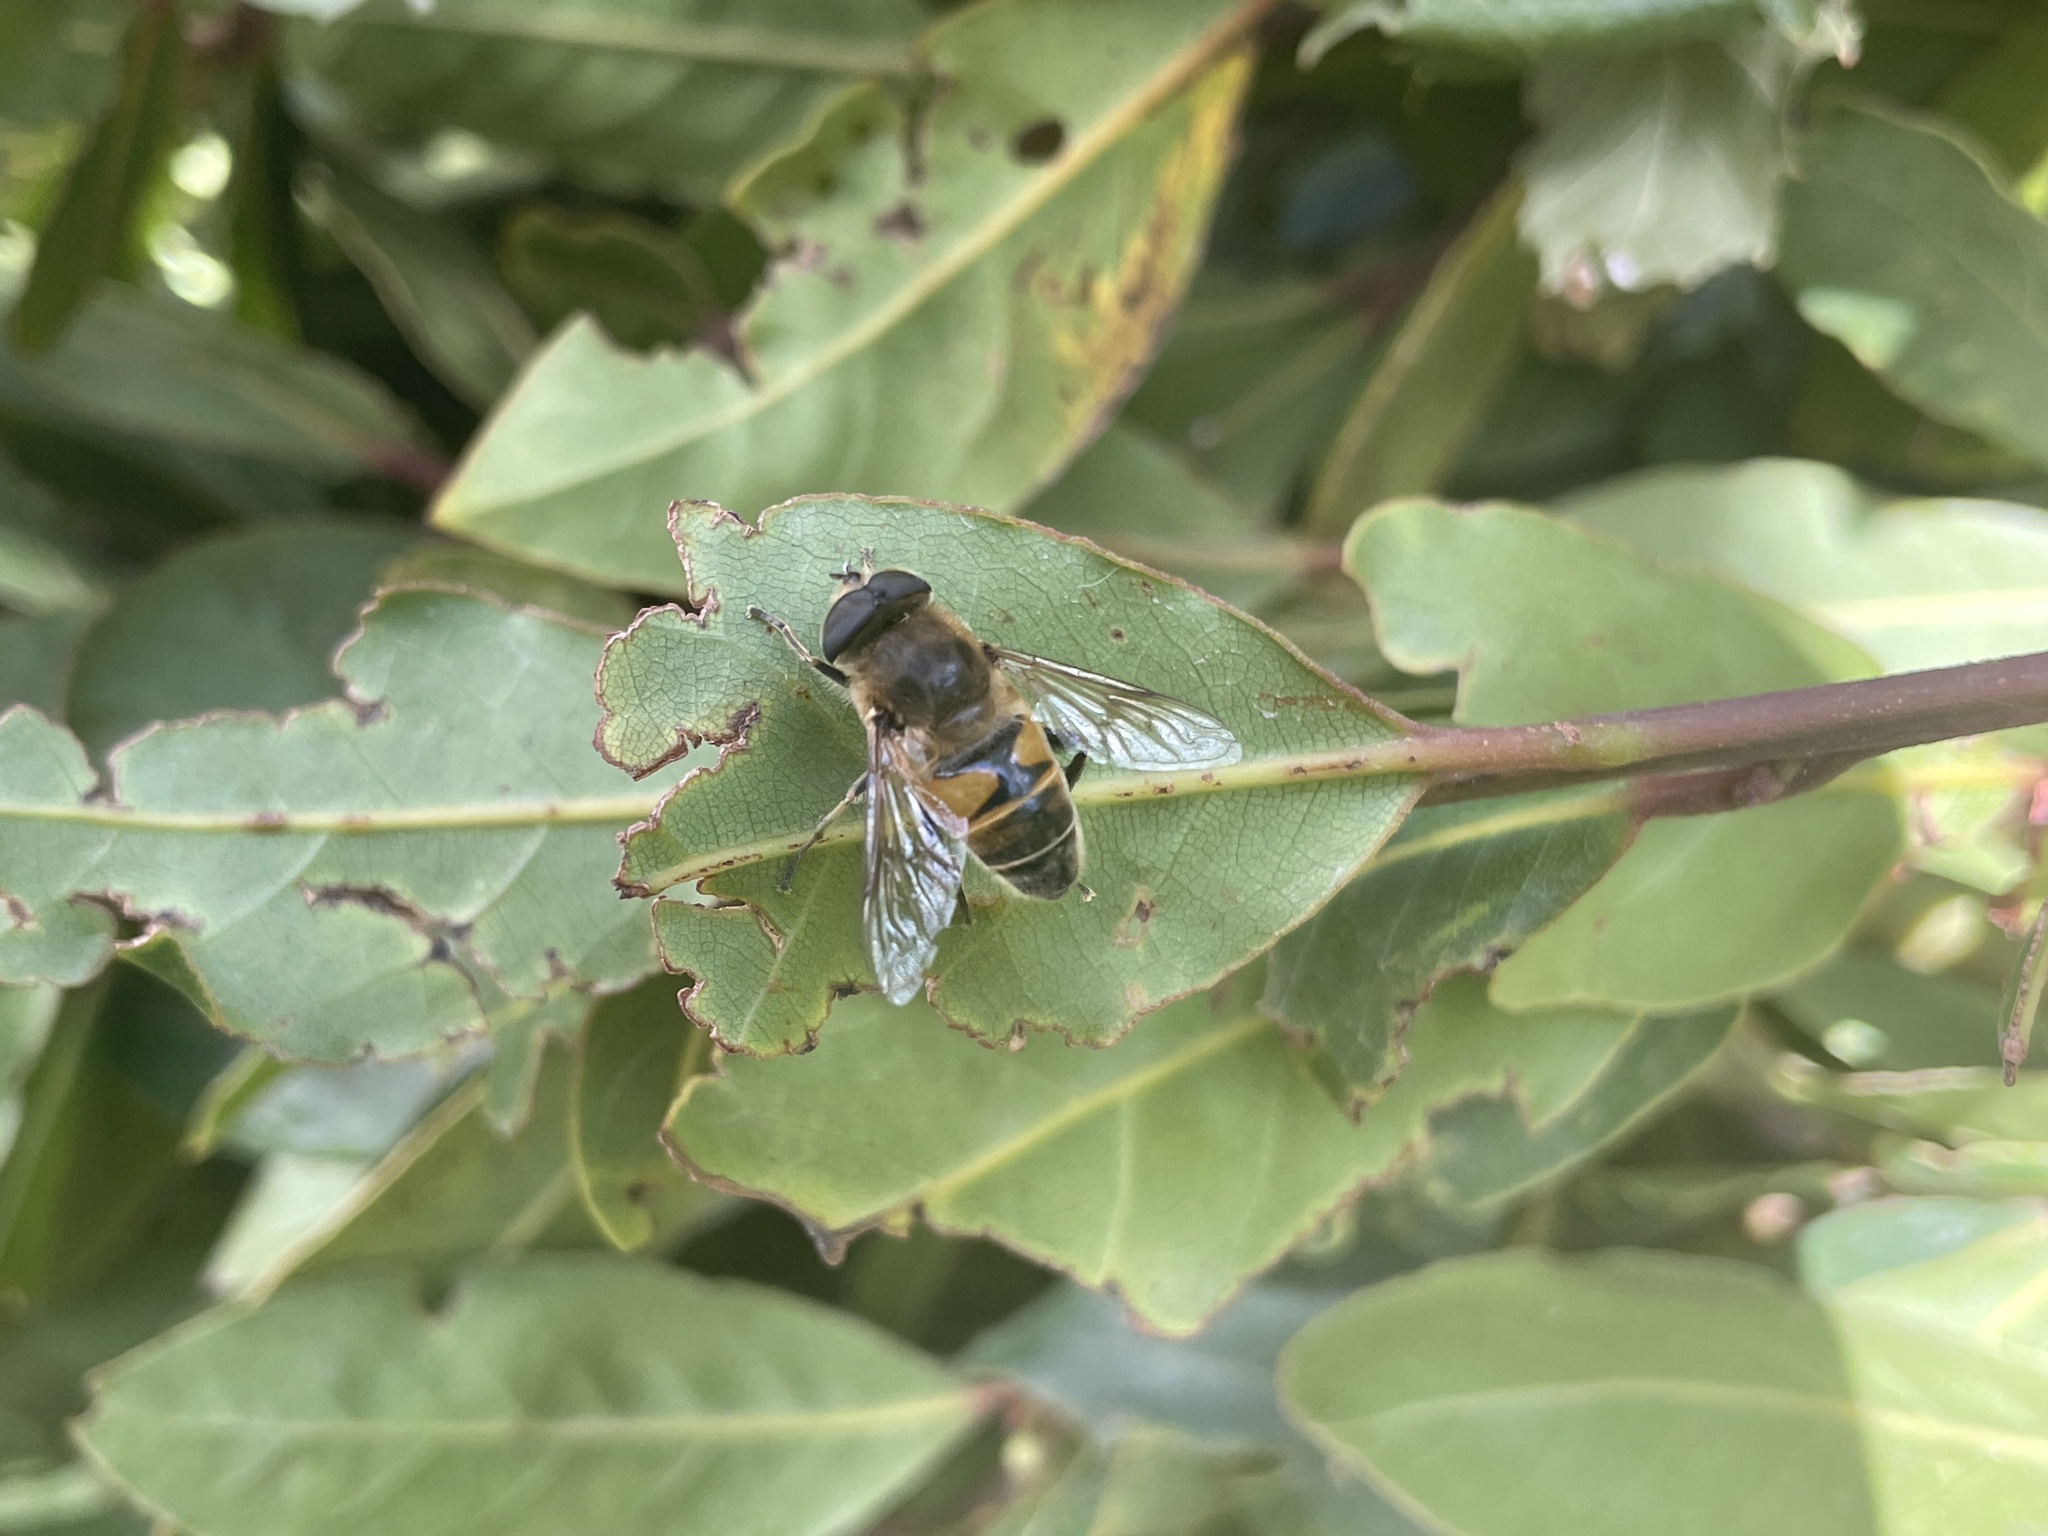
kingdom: Animalia
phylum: Arthropoda
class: Insecta
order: Diptera
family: Syrphidae
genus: Eristalis
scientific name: Eristalis tenax
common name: Drone fly
